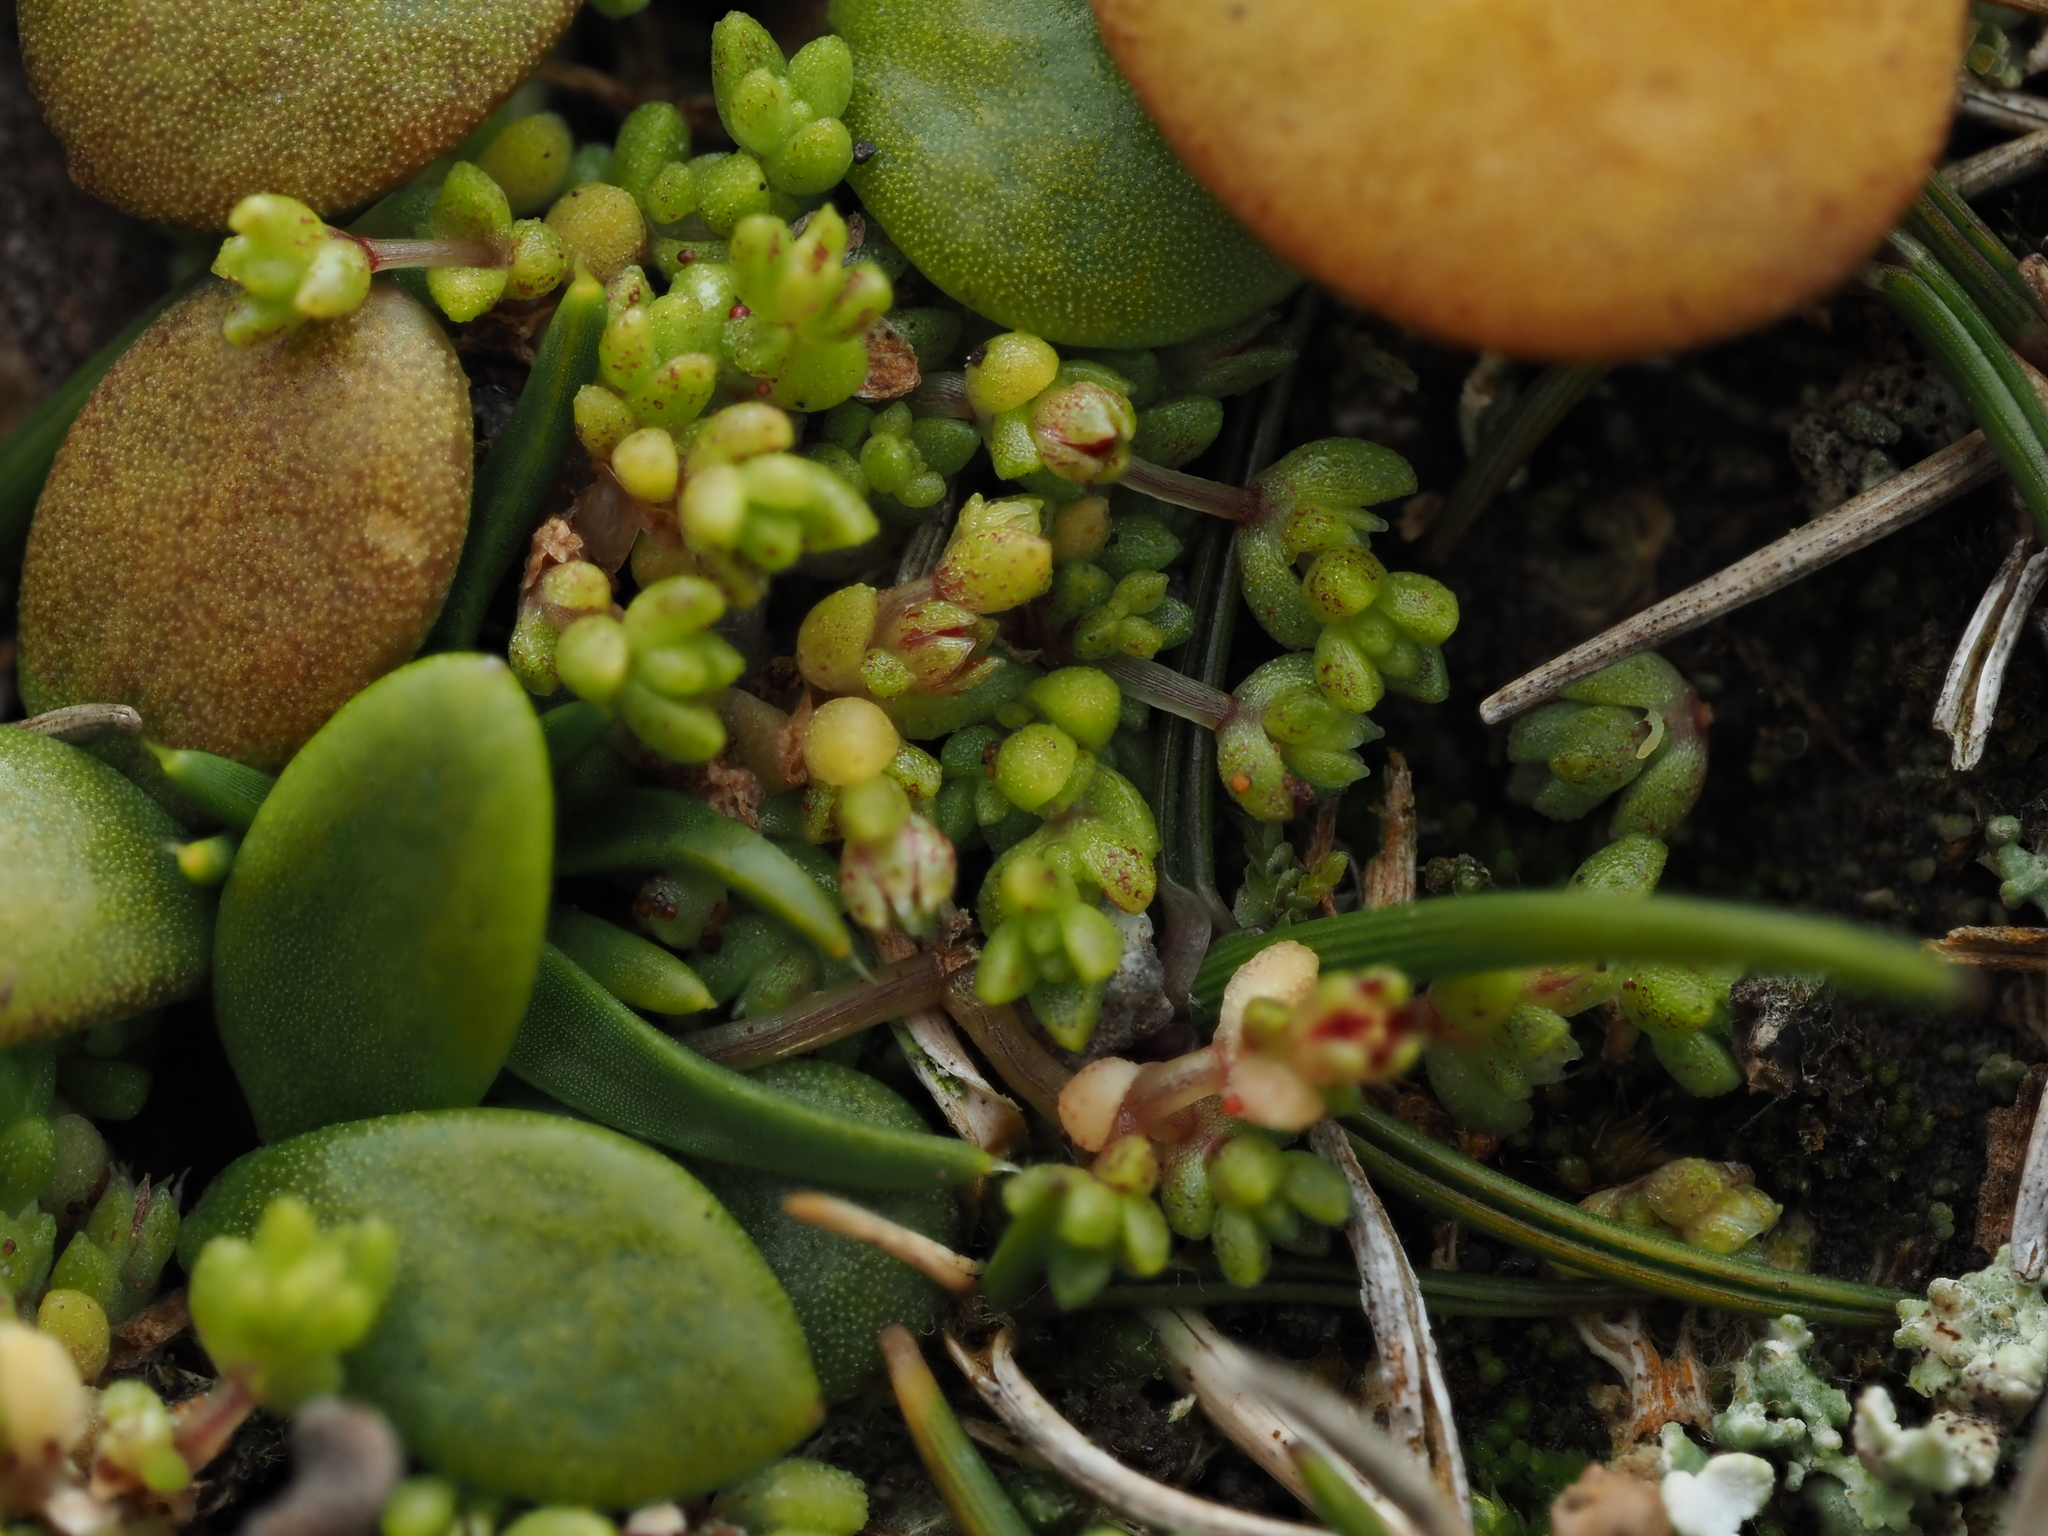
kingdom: Plantae
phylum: Tracheophyta
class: Magnoliopsida
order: Saxifragales
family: Crassulaceae
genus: Crassula
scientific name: Crassula manaia
